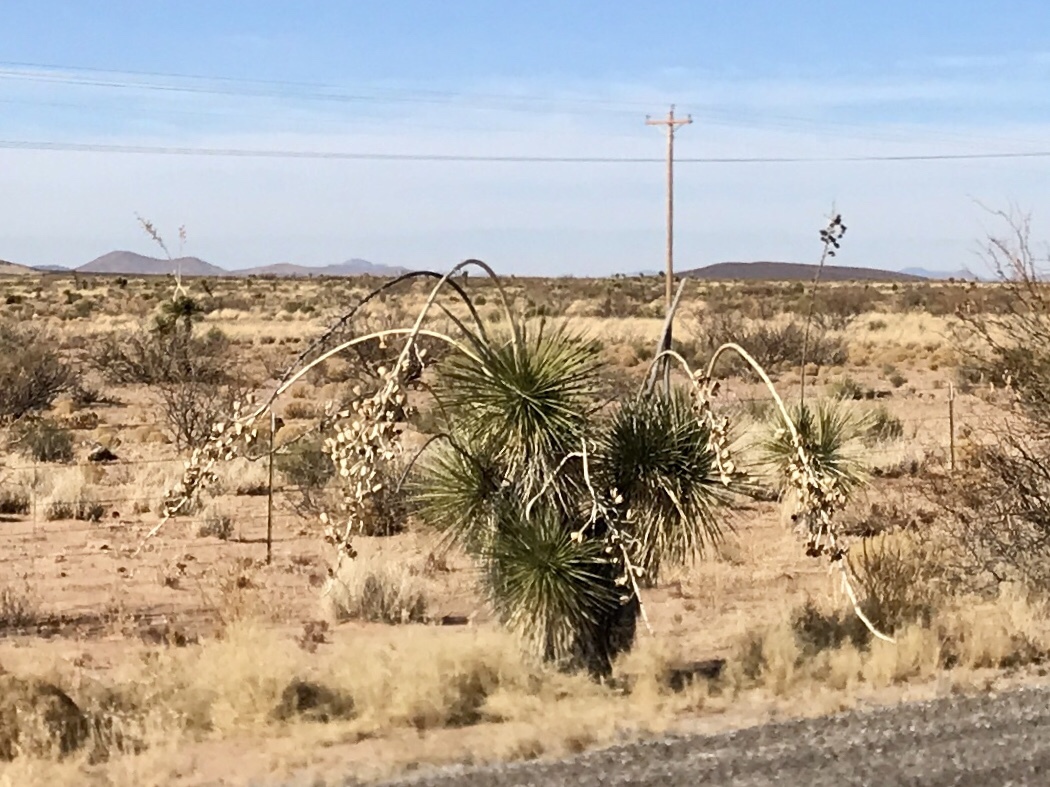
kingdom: Plantae
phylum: Tracheophyta
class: Liliopsida
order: Asparagales
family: Asparagaceae
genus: Yucca
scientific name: Yucca elata
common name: Palmella
